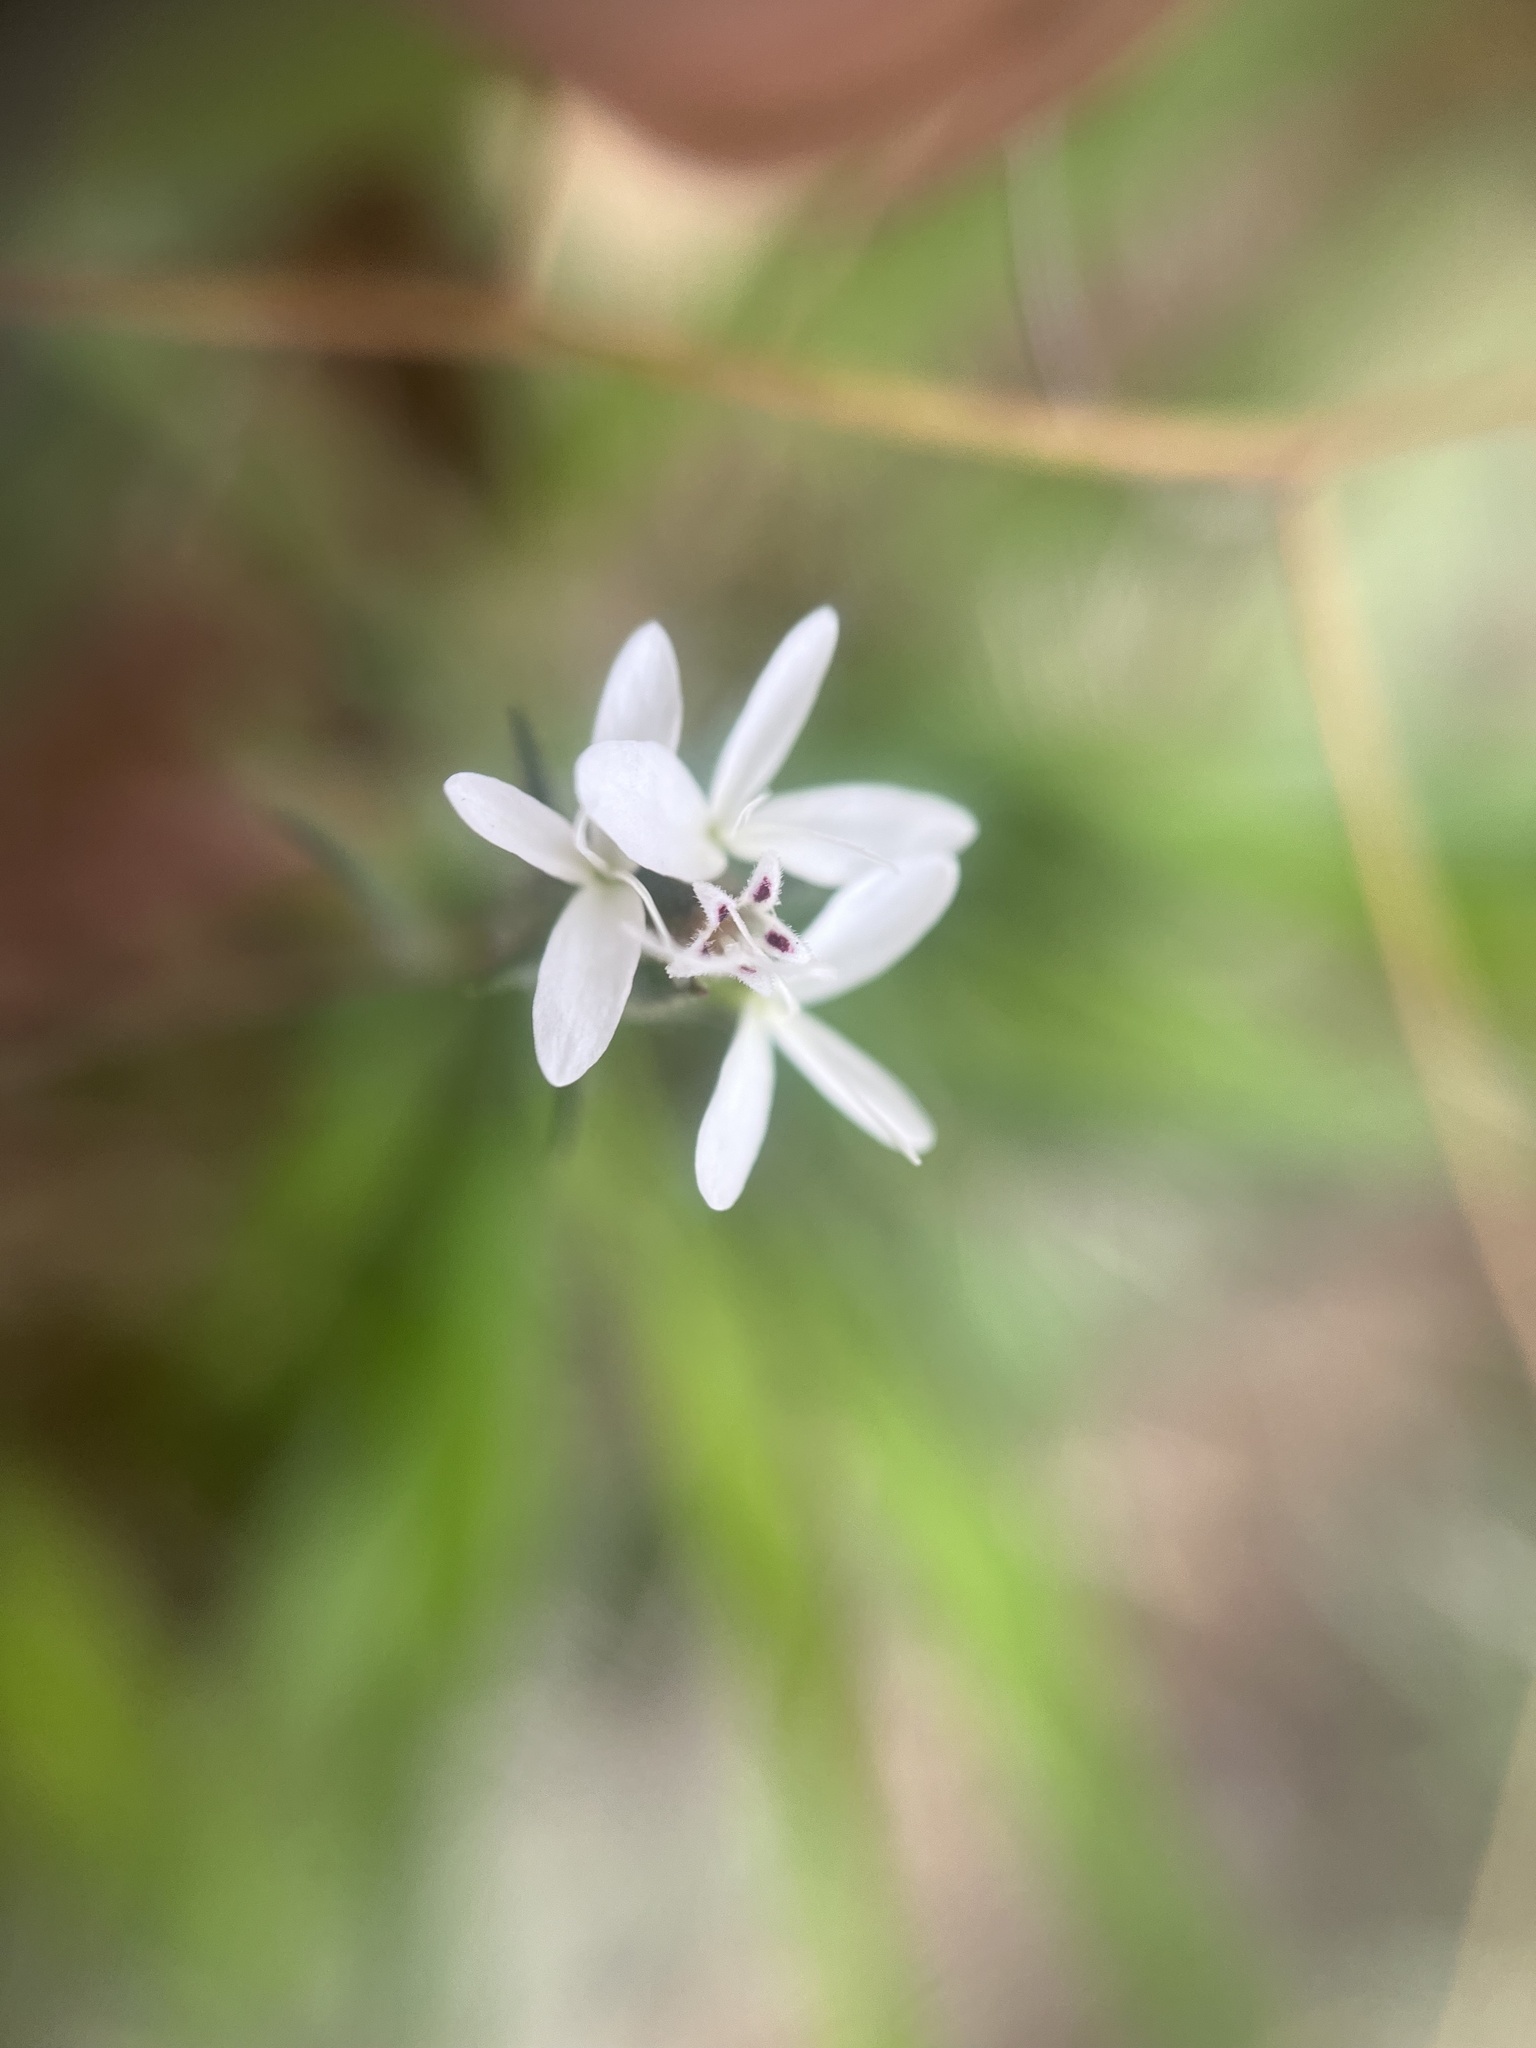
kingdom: Plantae
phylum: Tracheophyta
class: Magnoliopsida
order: Asterales
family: Asteraceae
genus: Osmadenia
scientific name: Osmadenia tenella
